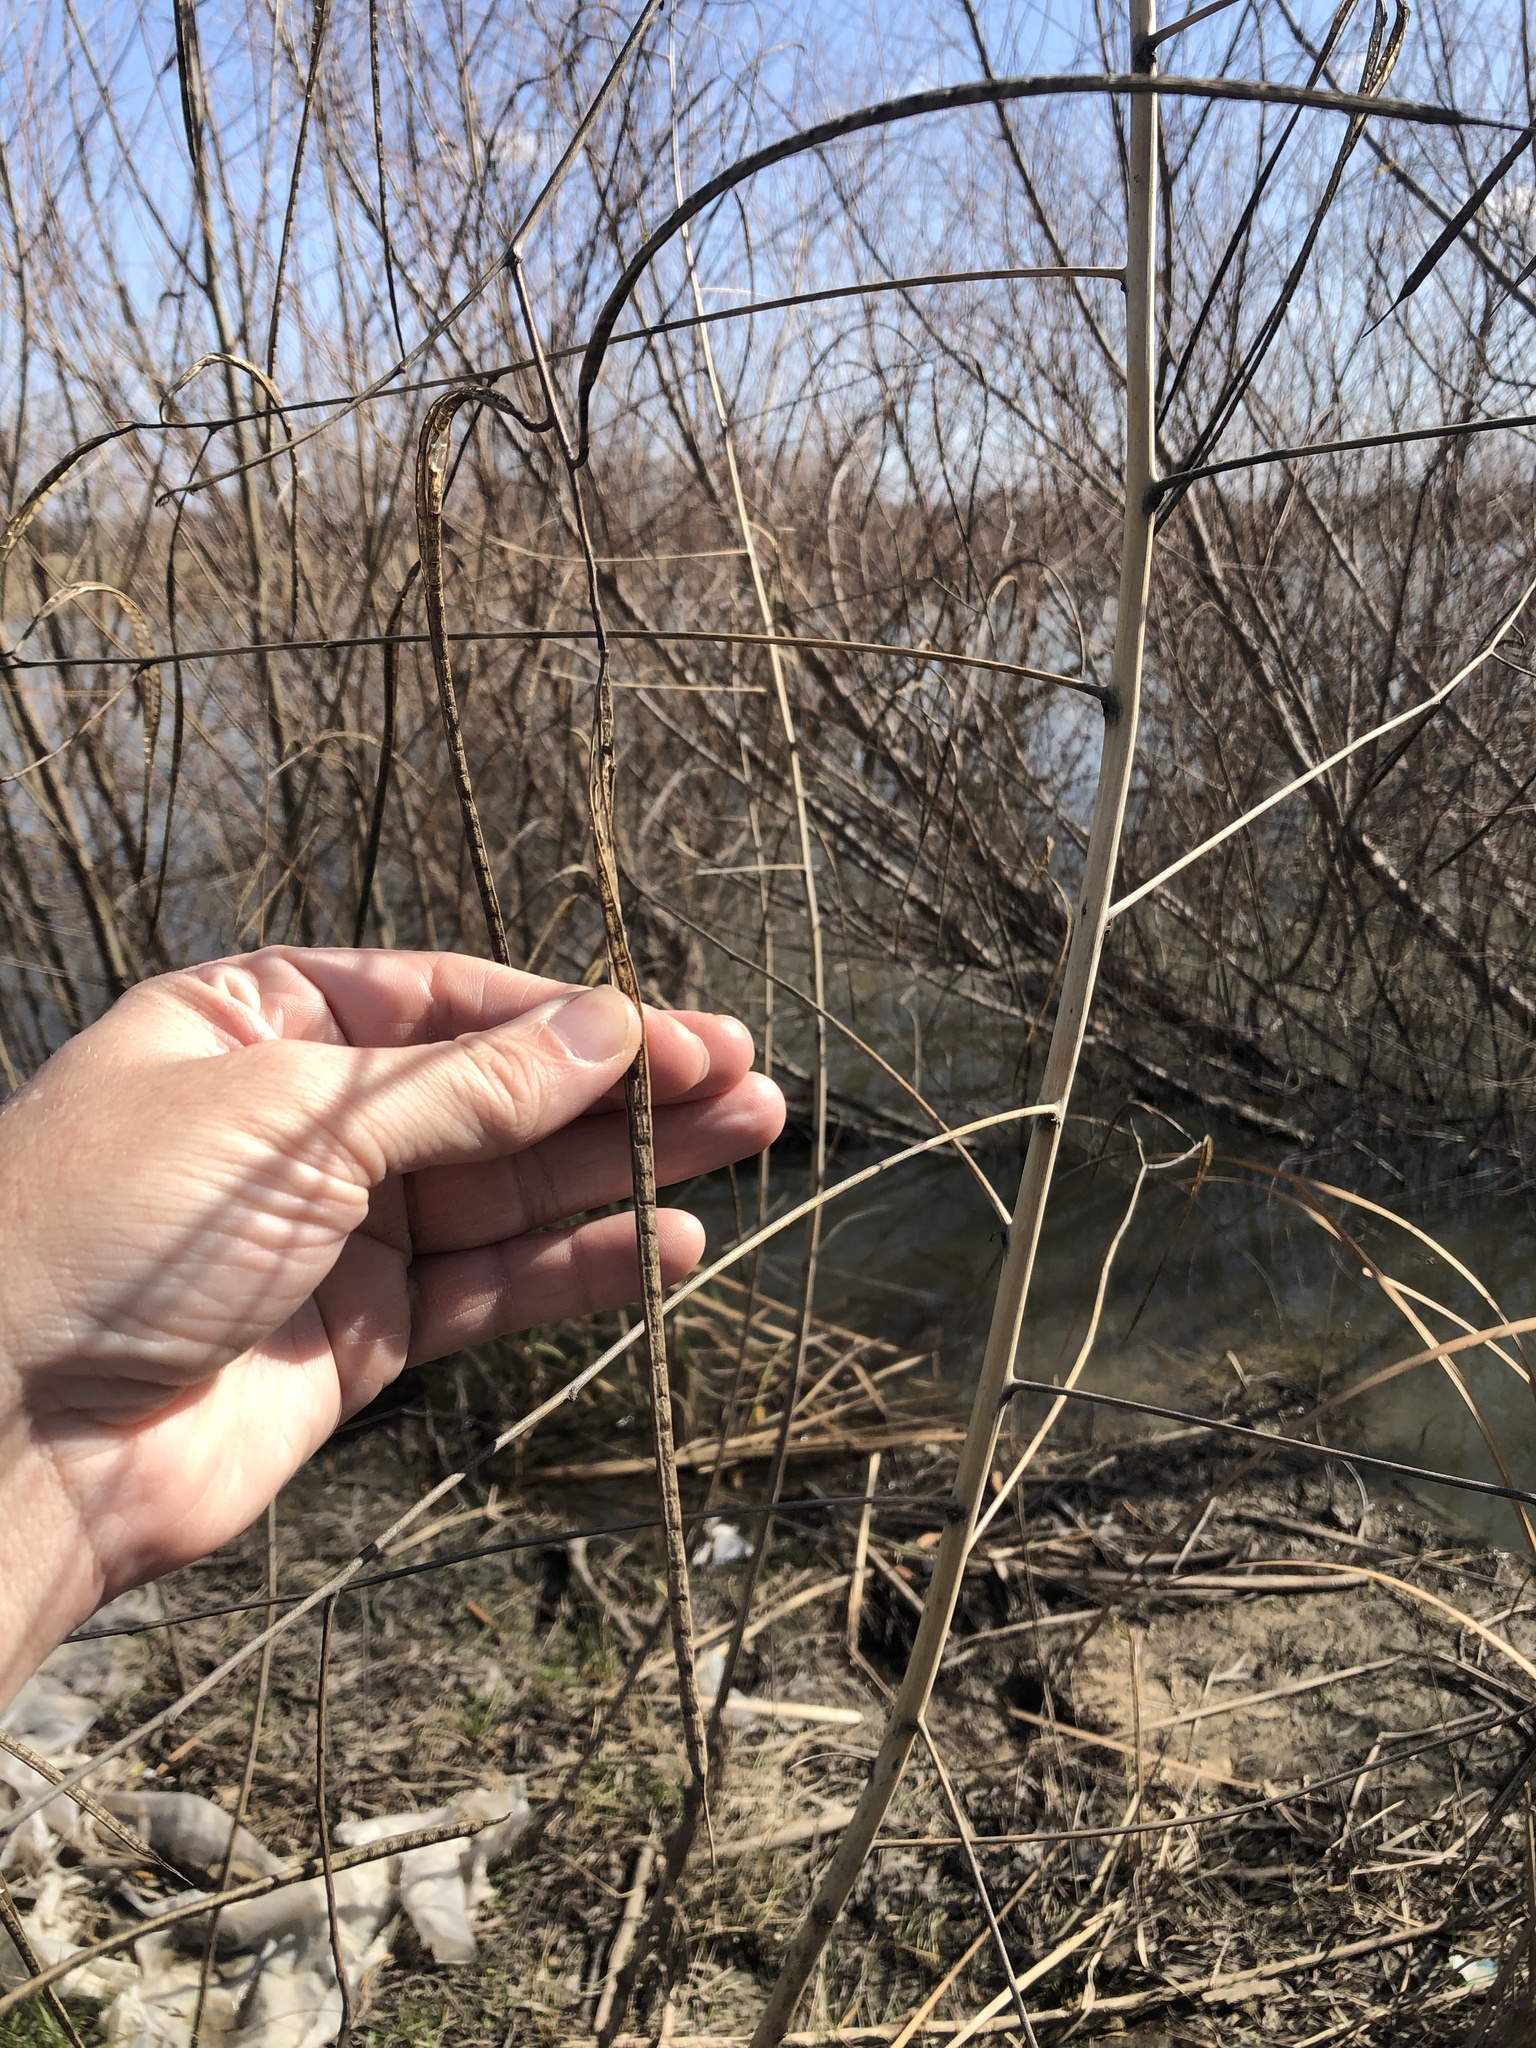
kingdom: Plantae
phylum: Tracheophyta
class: Magnoliopsida
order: Fabales
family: Fabaceae
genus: Sesbania
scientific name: Sesbania herbacea
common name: Bigpod sesbania
